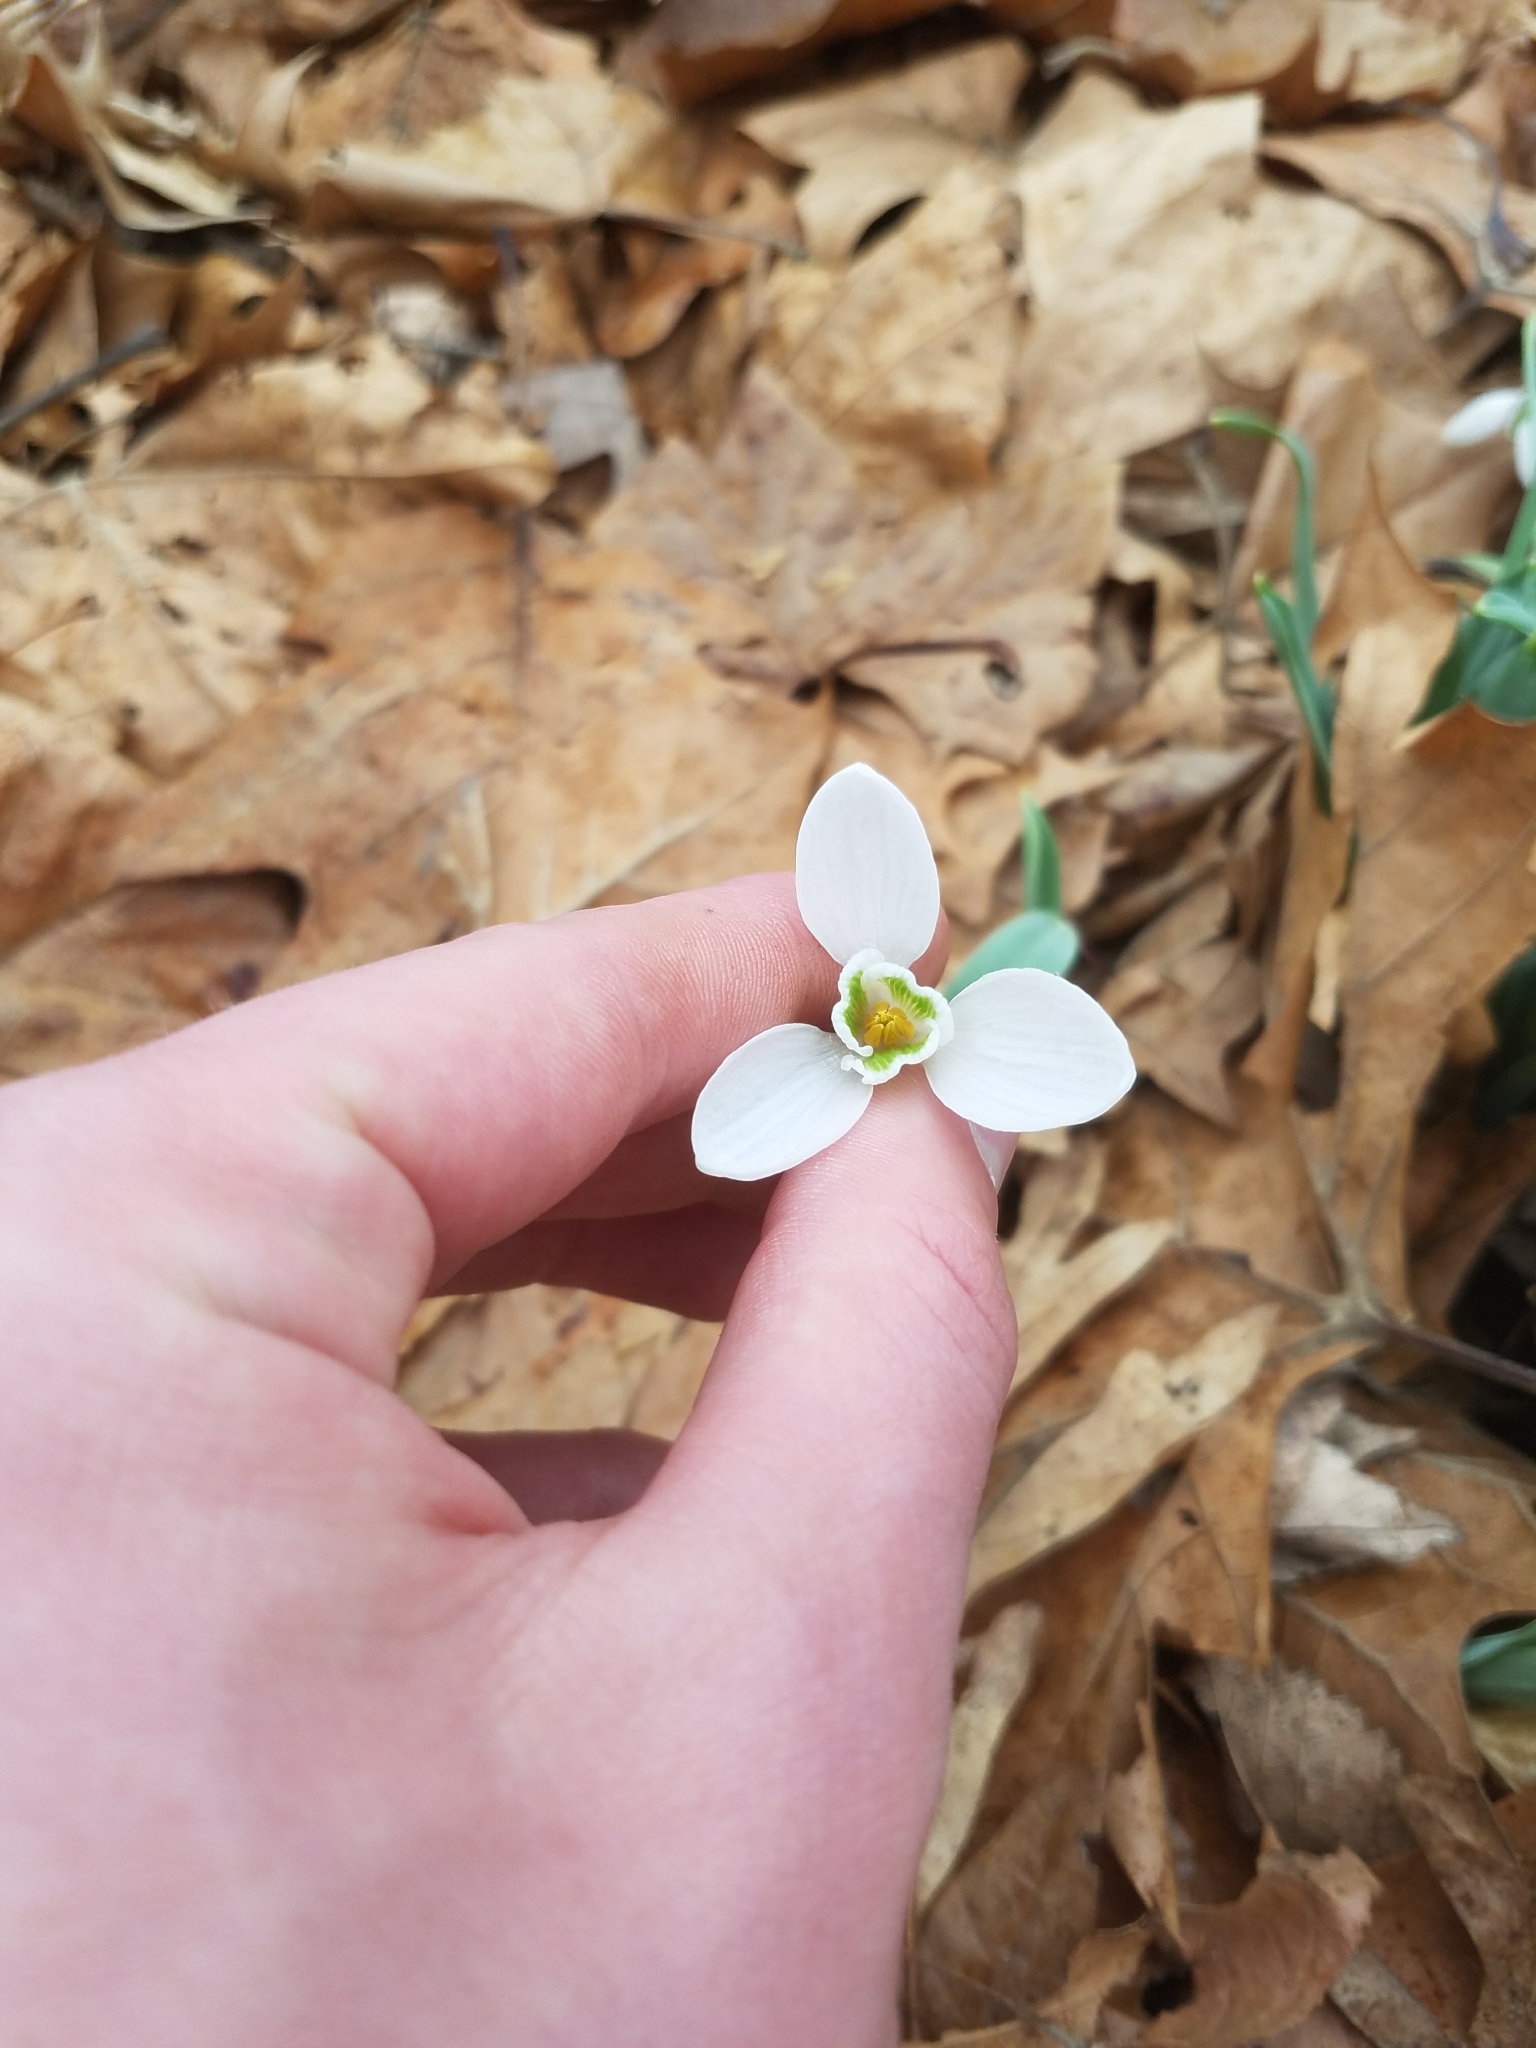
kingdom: Plantae
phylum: Tracheophyta
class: Liliopsida
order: Asparagales
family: Amaryllidaceae
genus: Galanthus
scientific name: Galanthus nivalis
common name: Snowdrop
